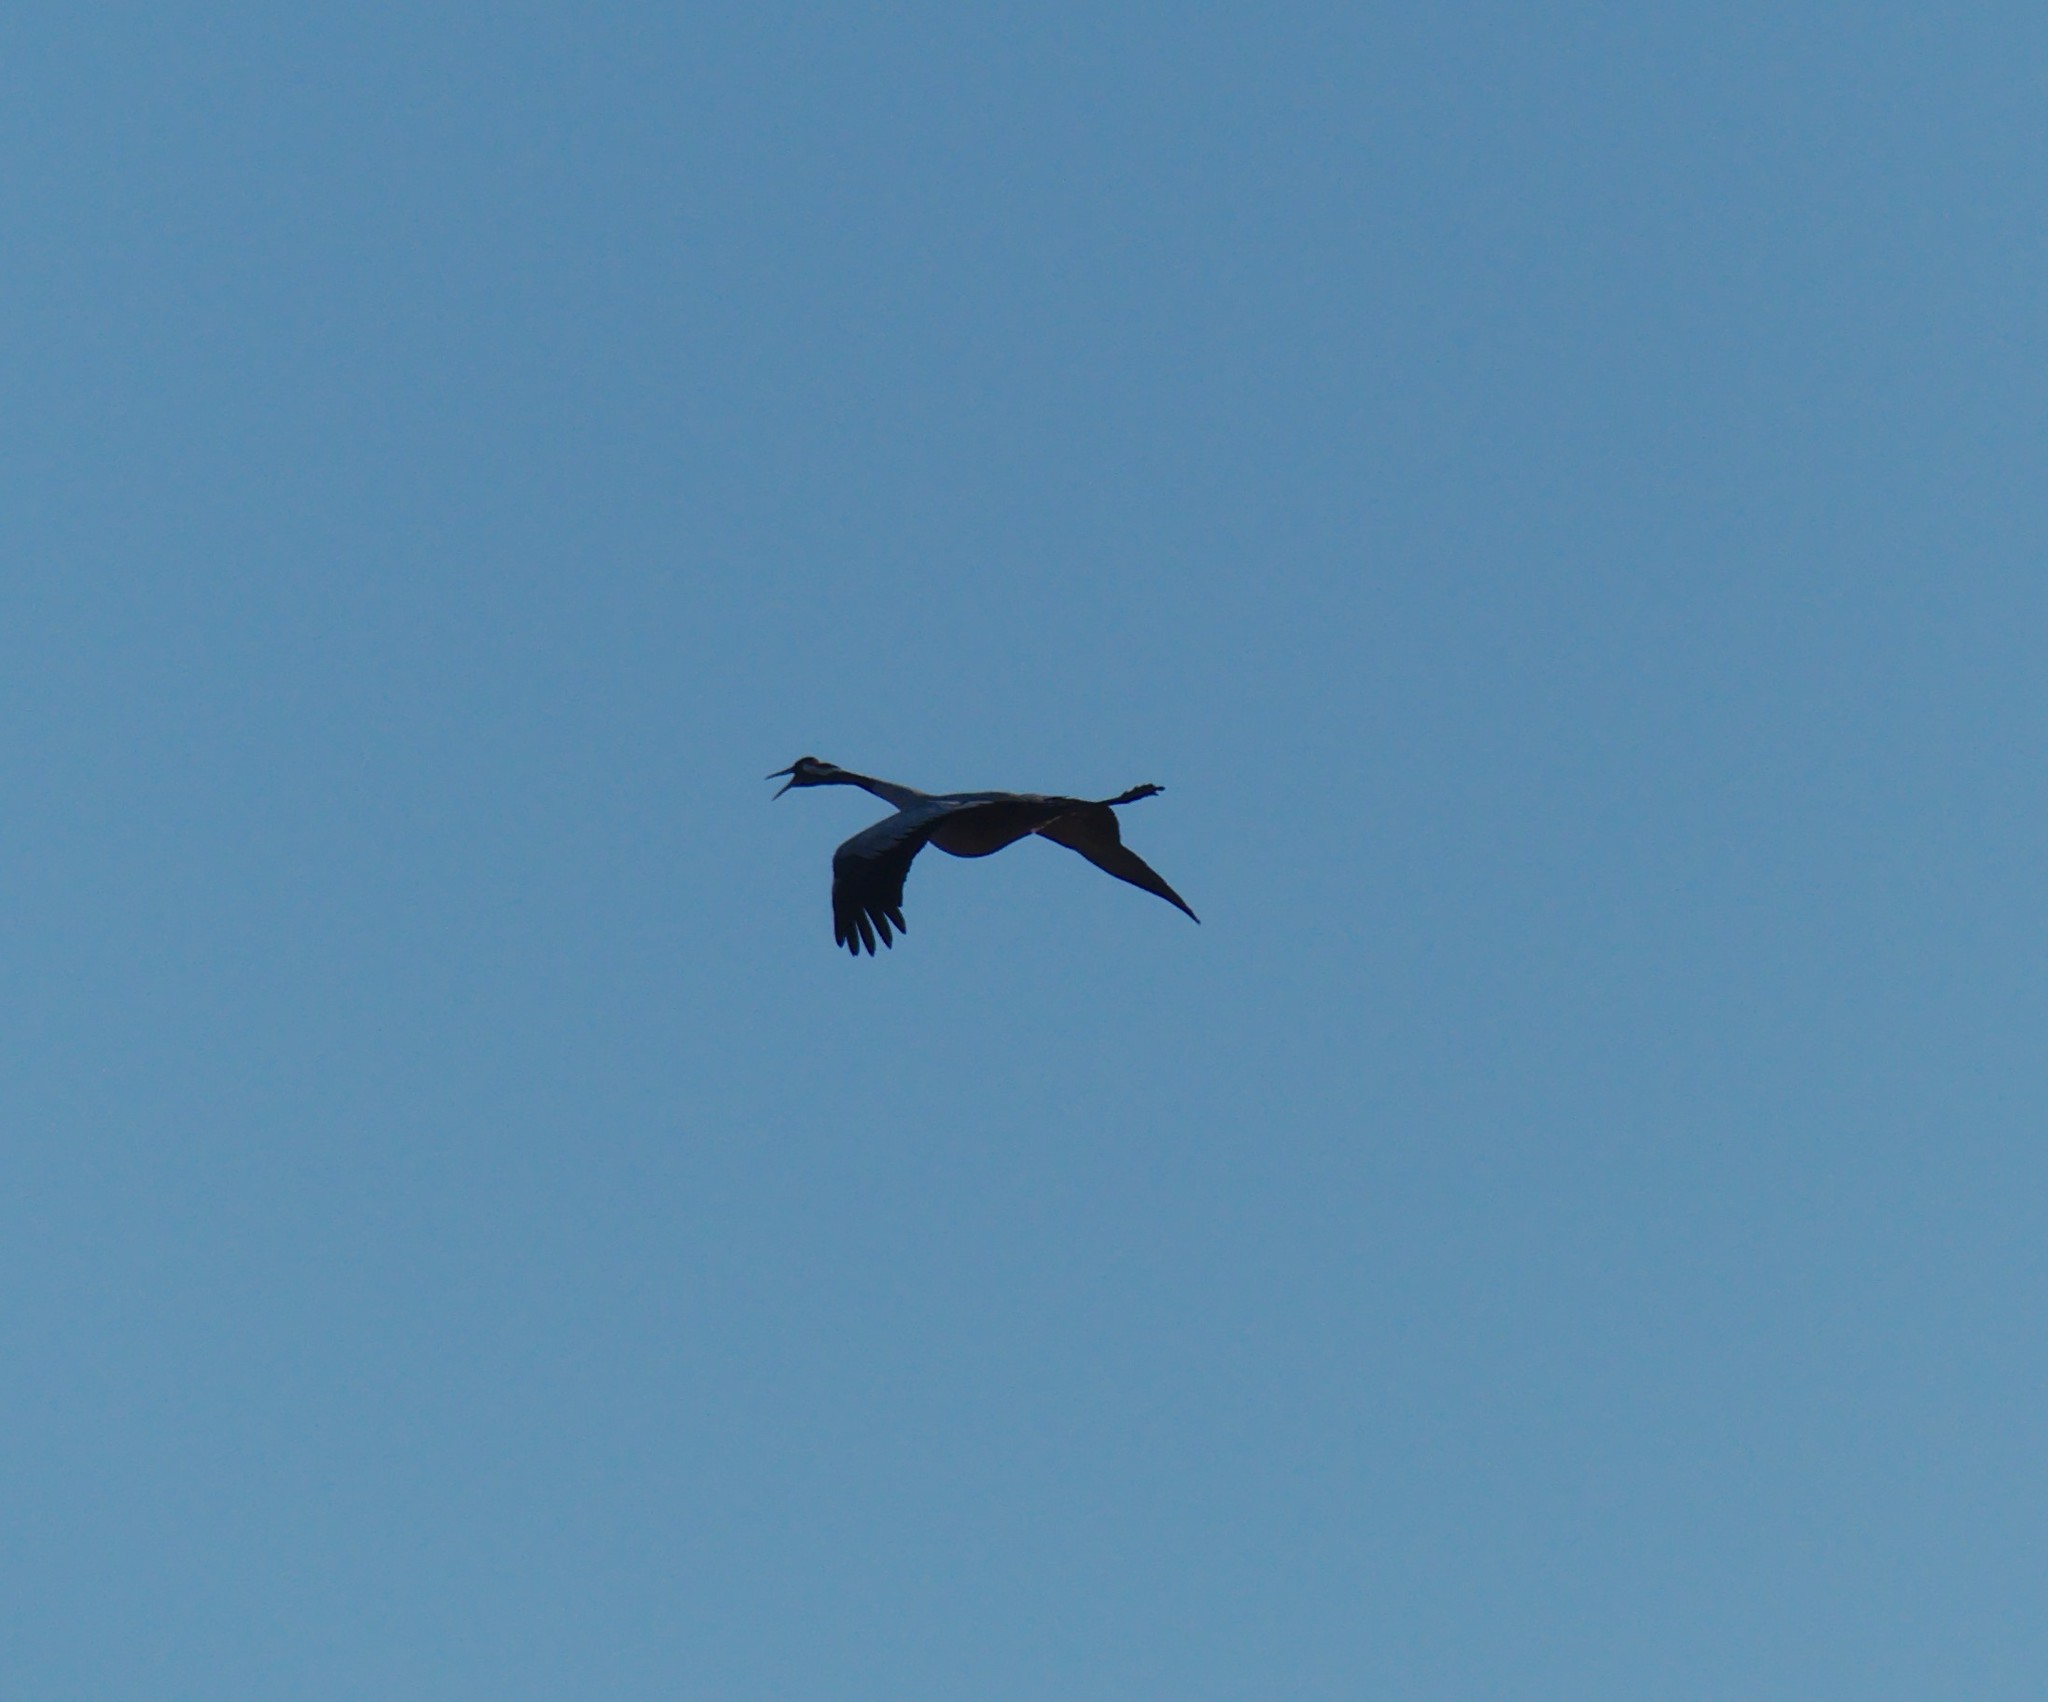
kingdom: Animalia
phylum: Chordata
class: Aves
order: Gruiformes
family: Gruidae
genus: Grus
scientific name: Grus grus
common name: Common crane
